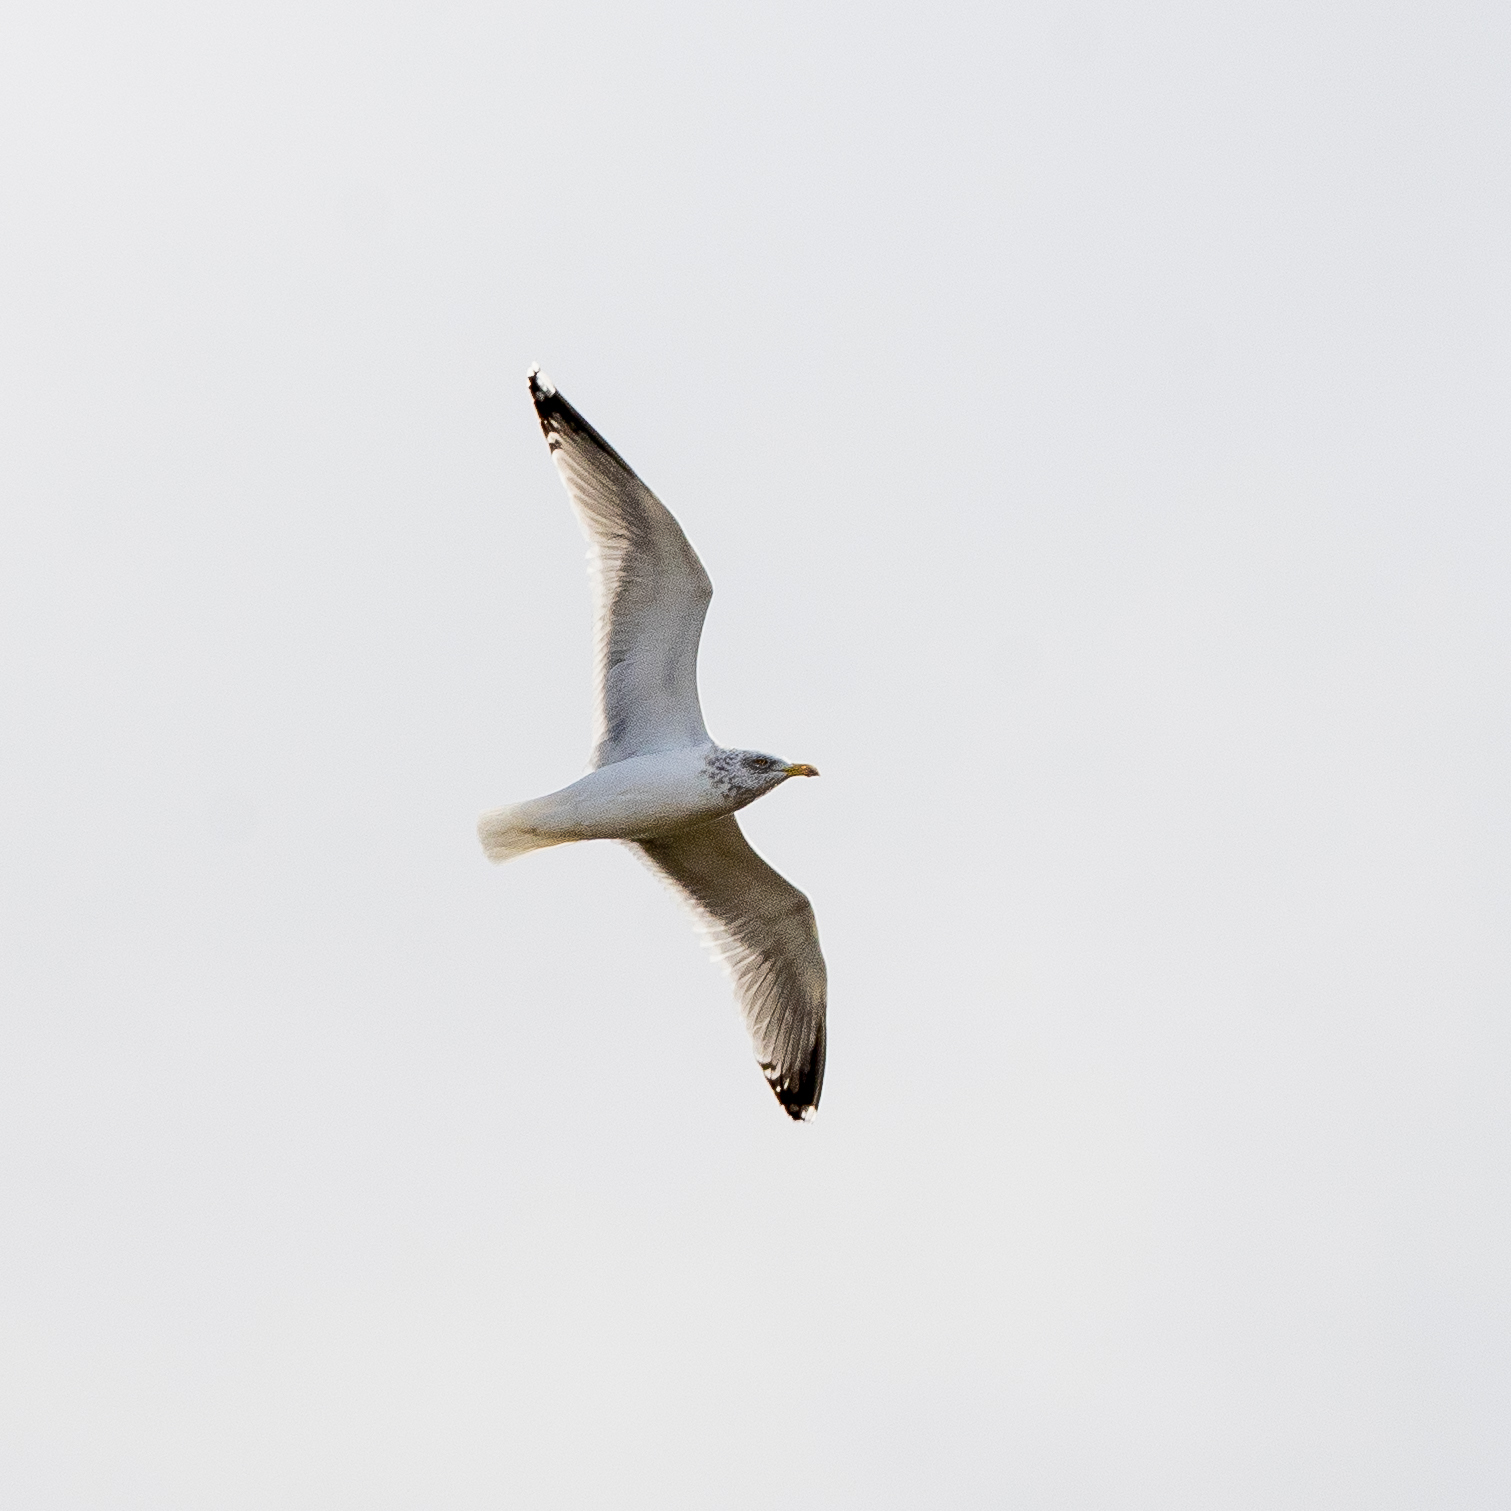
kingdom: Animalia
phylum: Chordata
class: Aves
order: Charadriiformes
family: Laridae
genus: Larus
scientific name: Larus argentatus
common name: Herring gull
